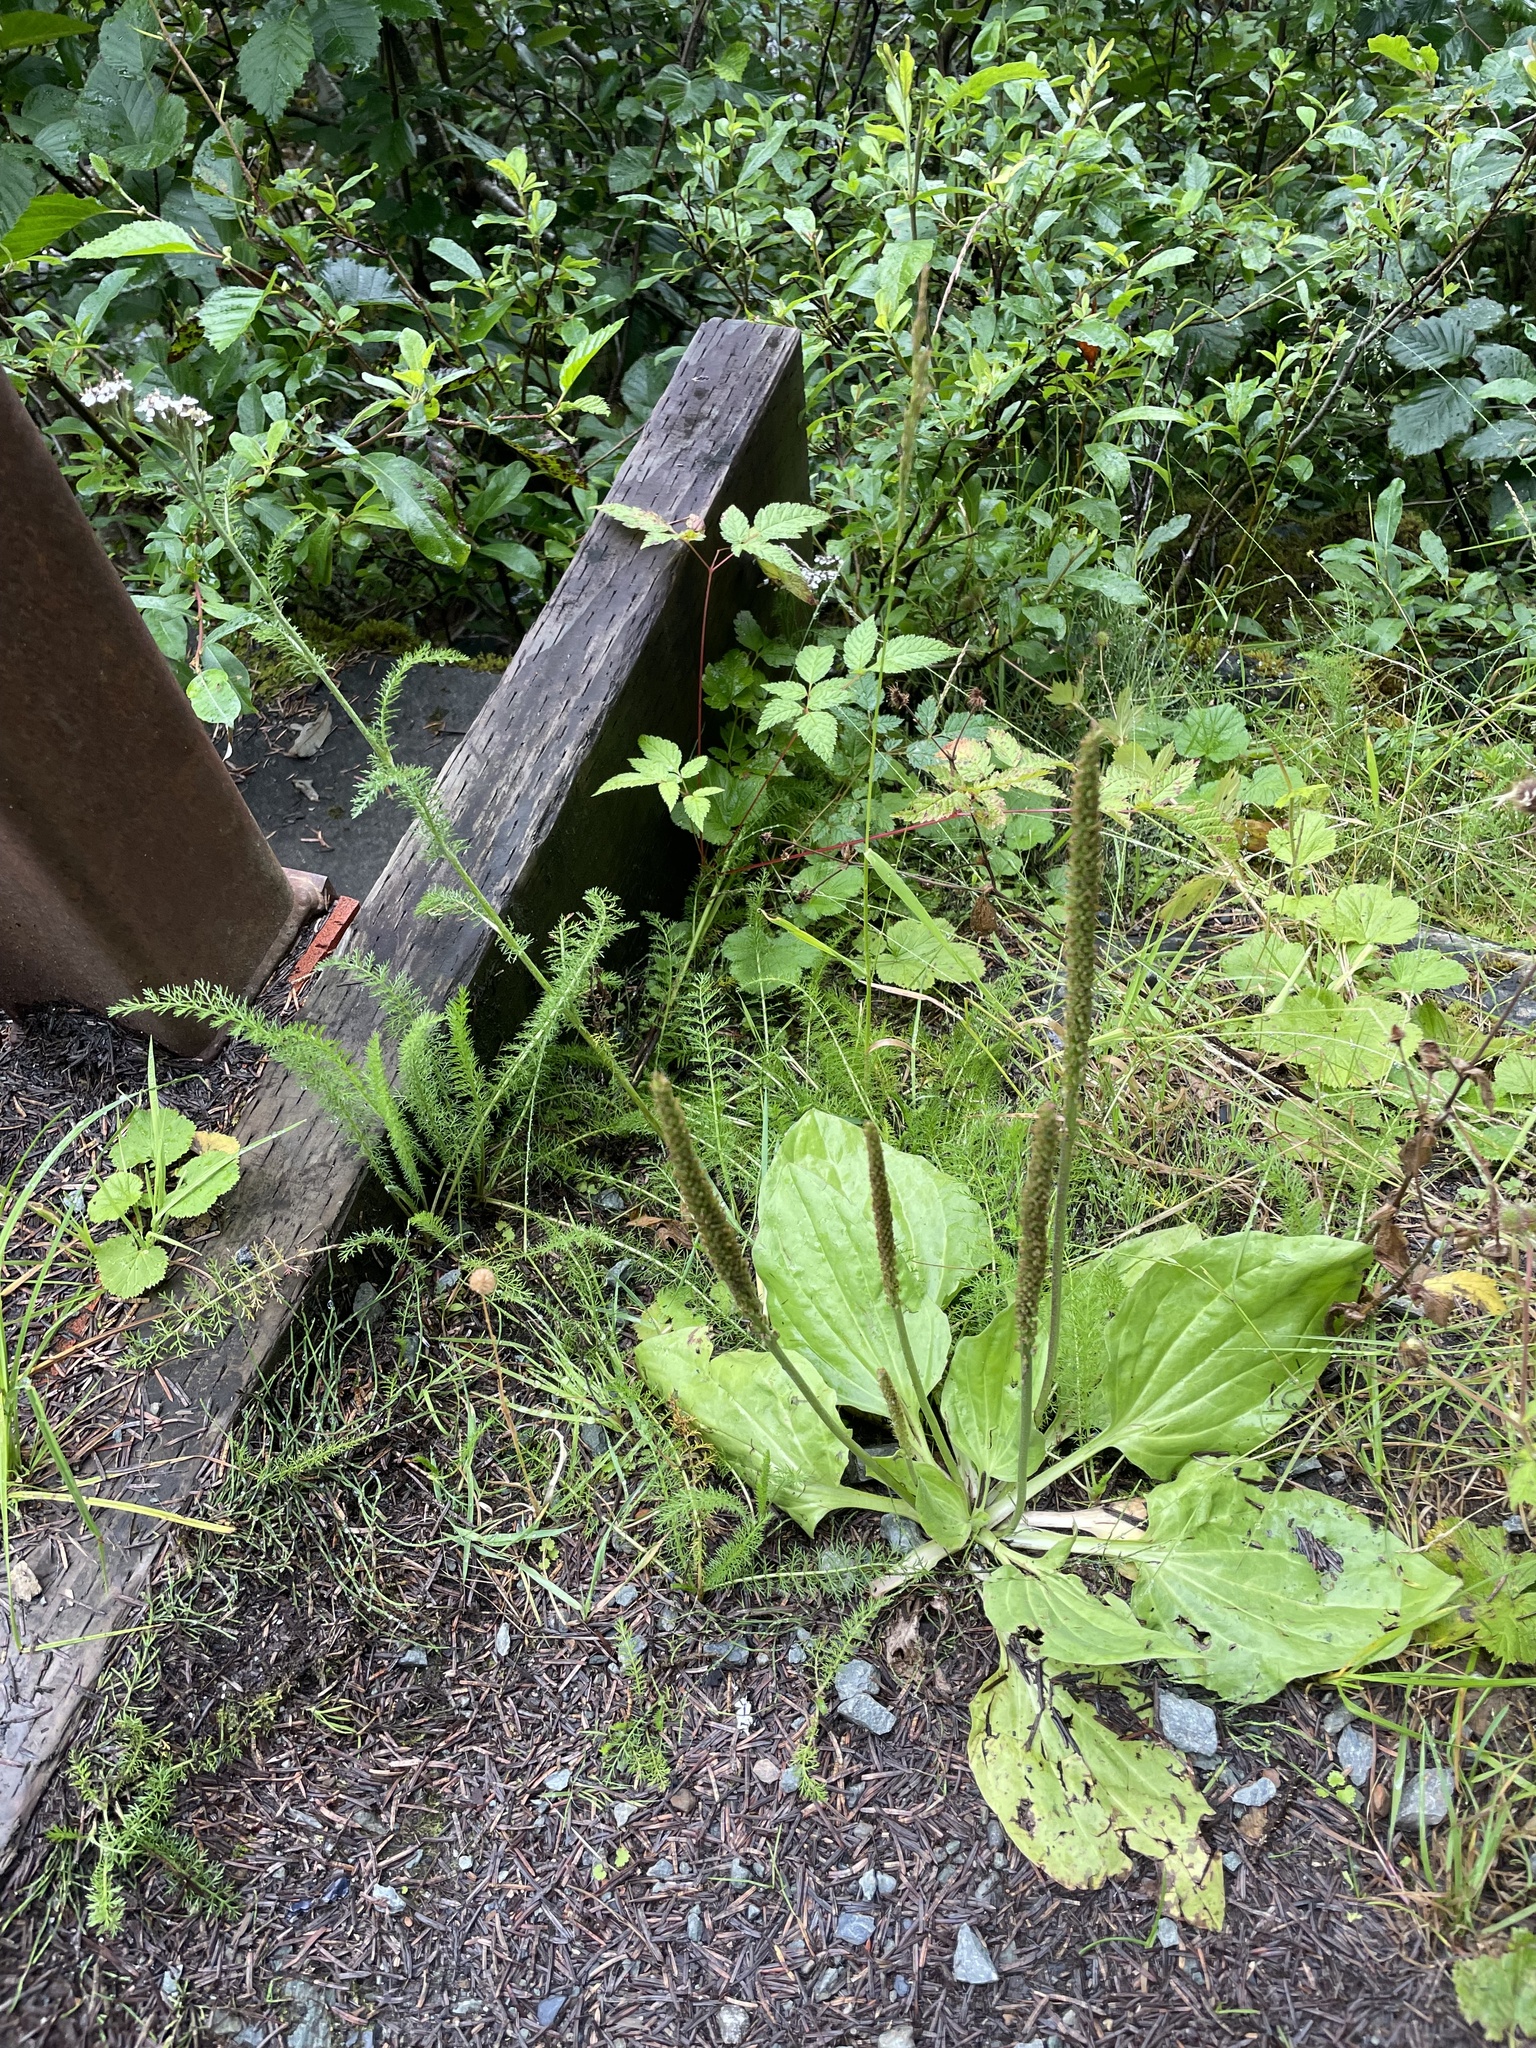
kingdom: Plantae
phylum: Tracheophyta
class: Magnoliopsida
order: Lamiales
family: Plantaginaceae
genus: Plantago
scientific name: Plantago major
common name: Common plantain
